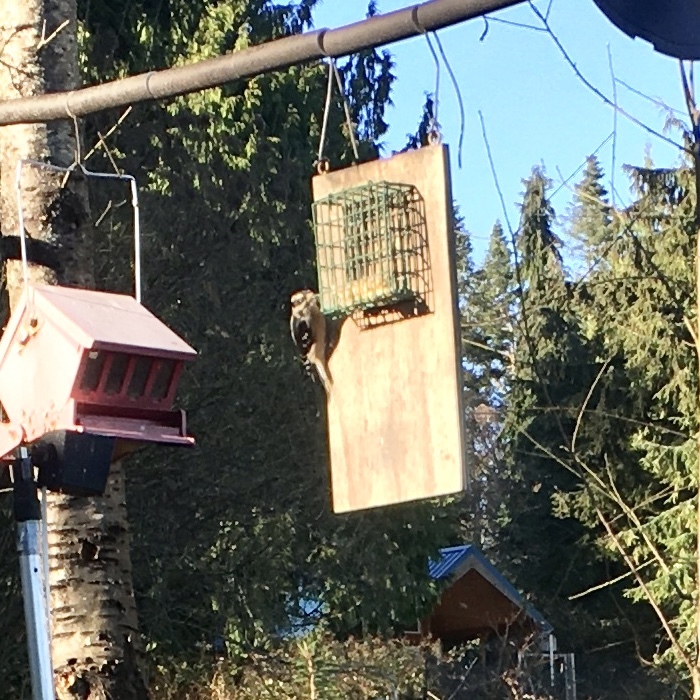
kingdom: Animalia
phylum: Chordata
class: Aves
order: Piciformes
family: Picidae
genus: Dryobates
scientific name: Dryobates pubescens
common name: Downy woodpecker
